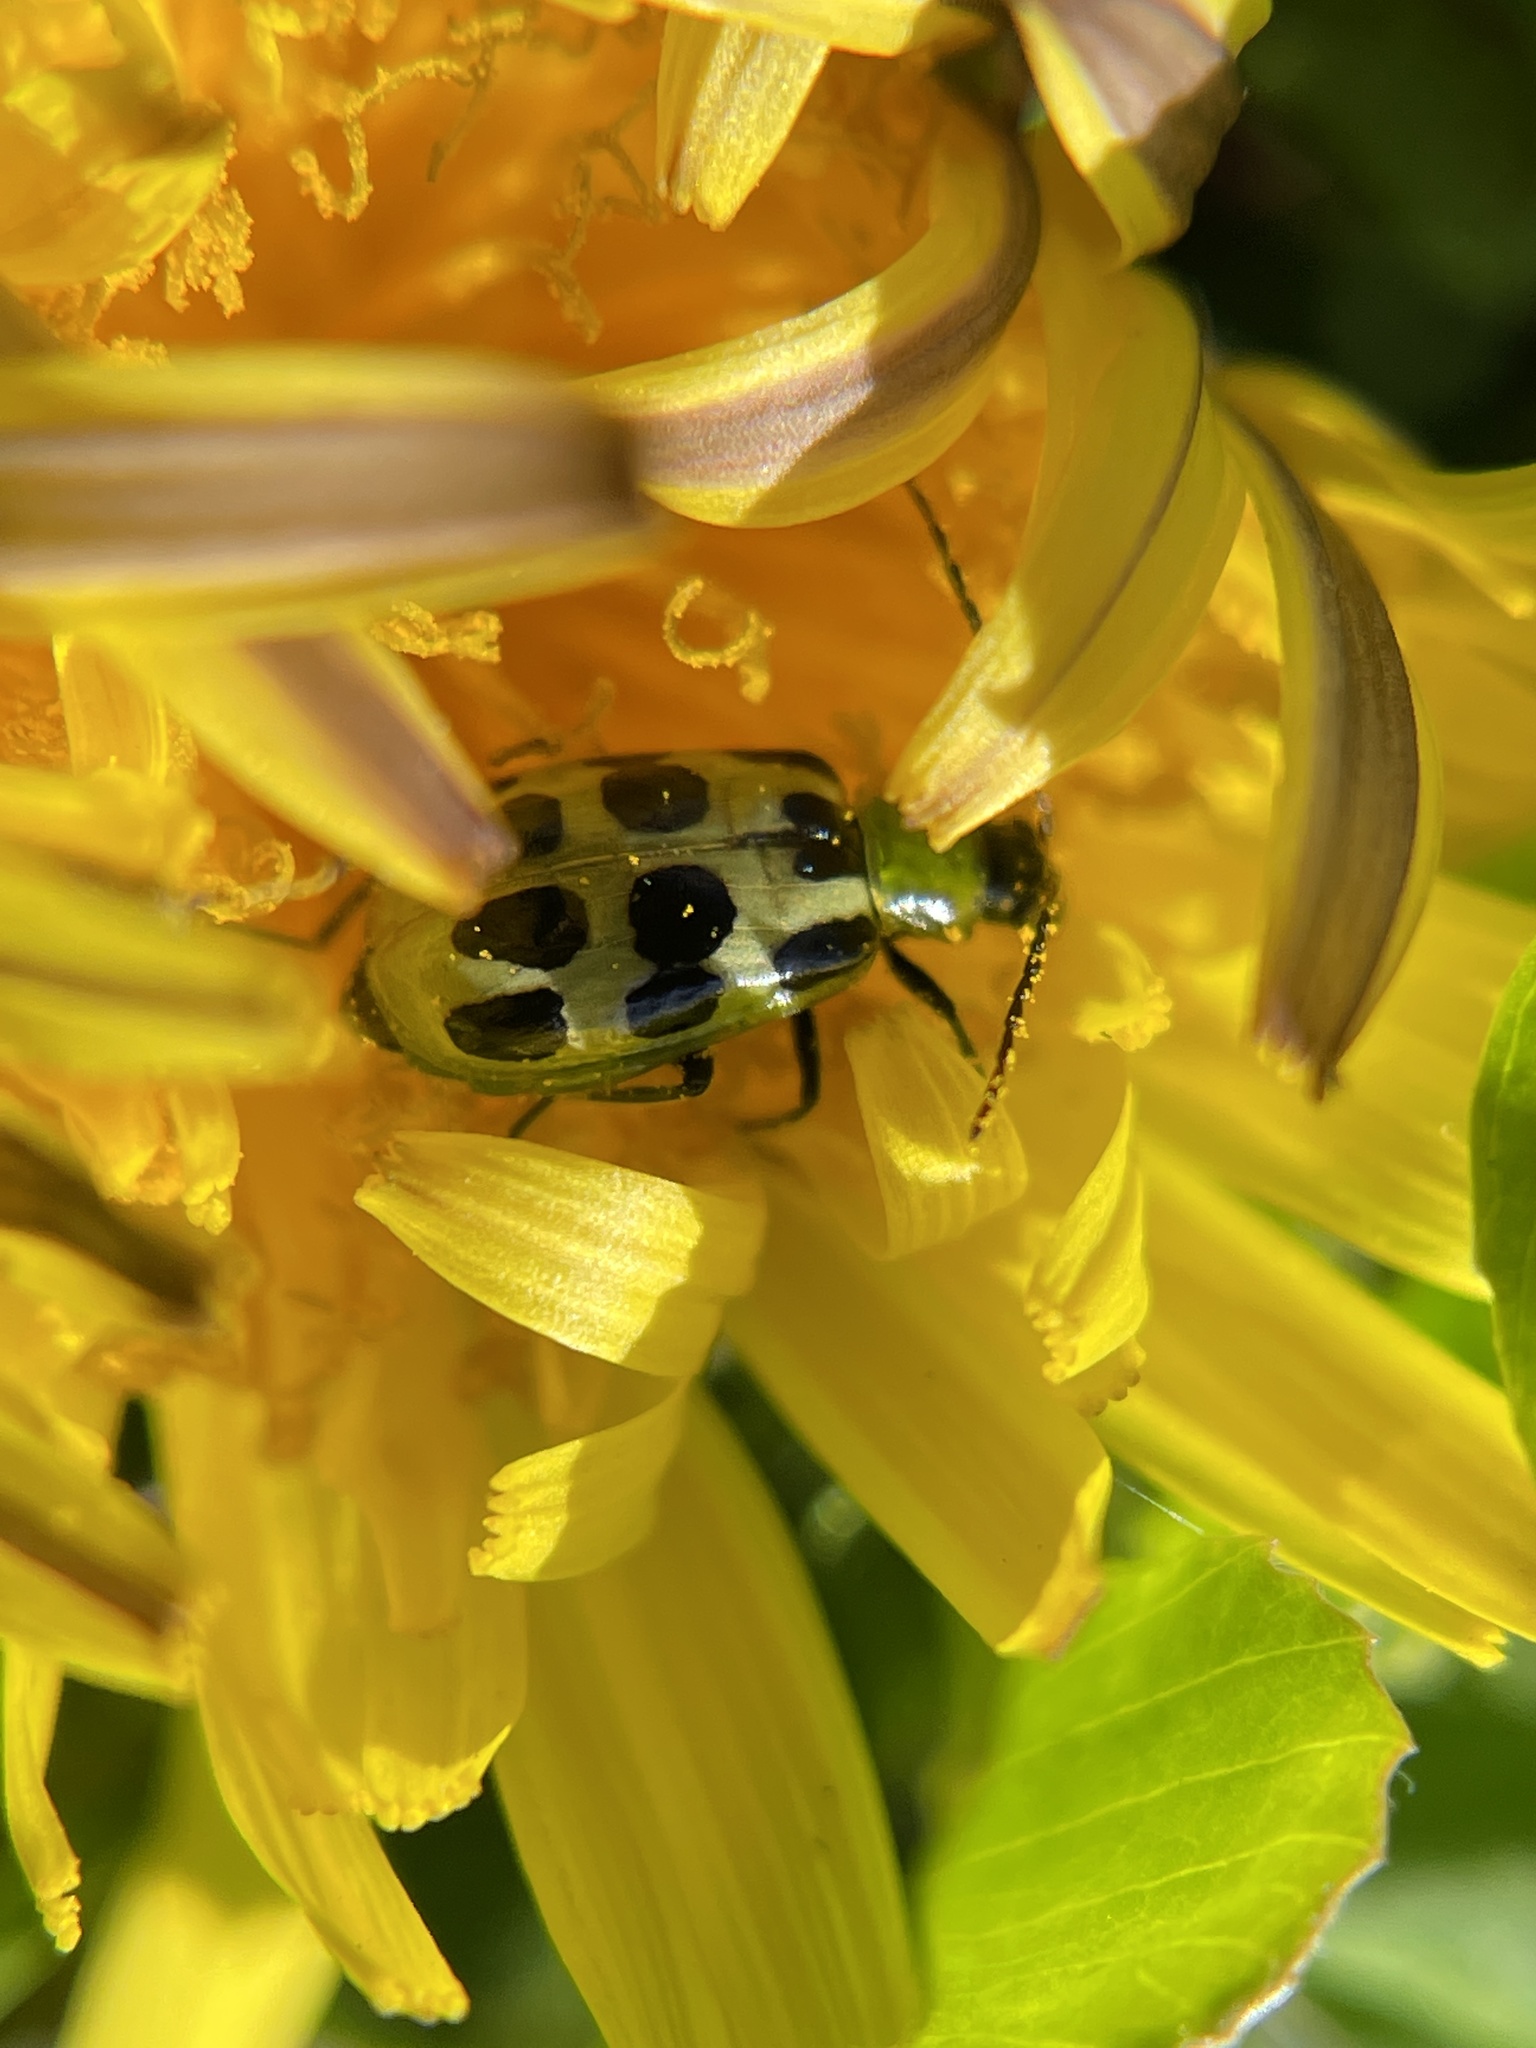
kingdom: Animalia
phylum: Arthropoda
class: Insecta
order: Coleoptera
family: Chrysomelidae
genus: Diabrotica
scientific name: Diabrotica undecimpunctata
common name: Spotted cucumber beetle
